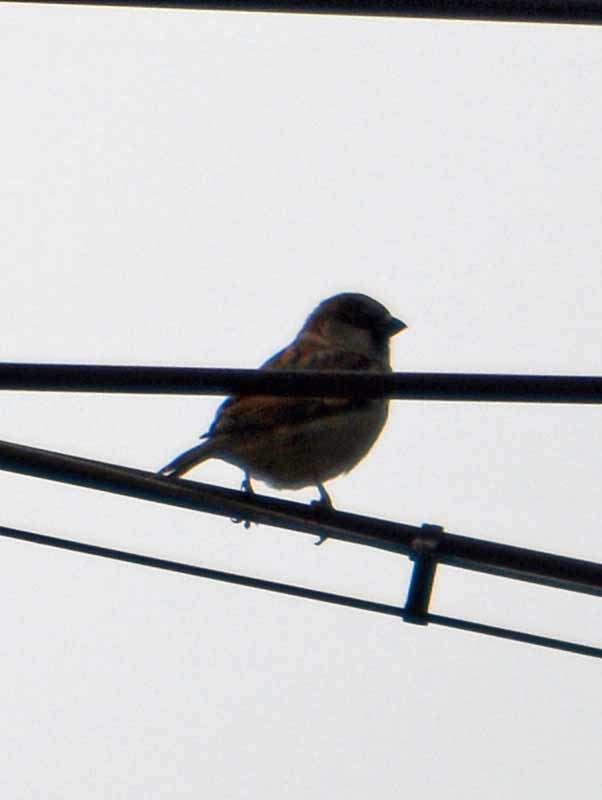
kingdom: Animalia
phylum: Chordata
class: Aves
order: Passeriformes
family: Passeridae
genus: Passer
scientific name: Passer domesticus
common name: House sparrow
